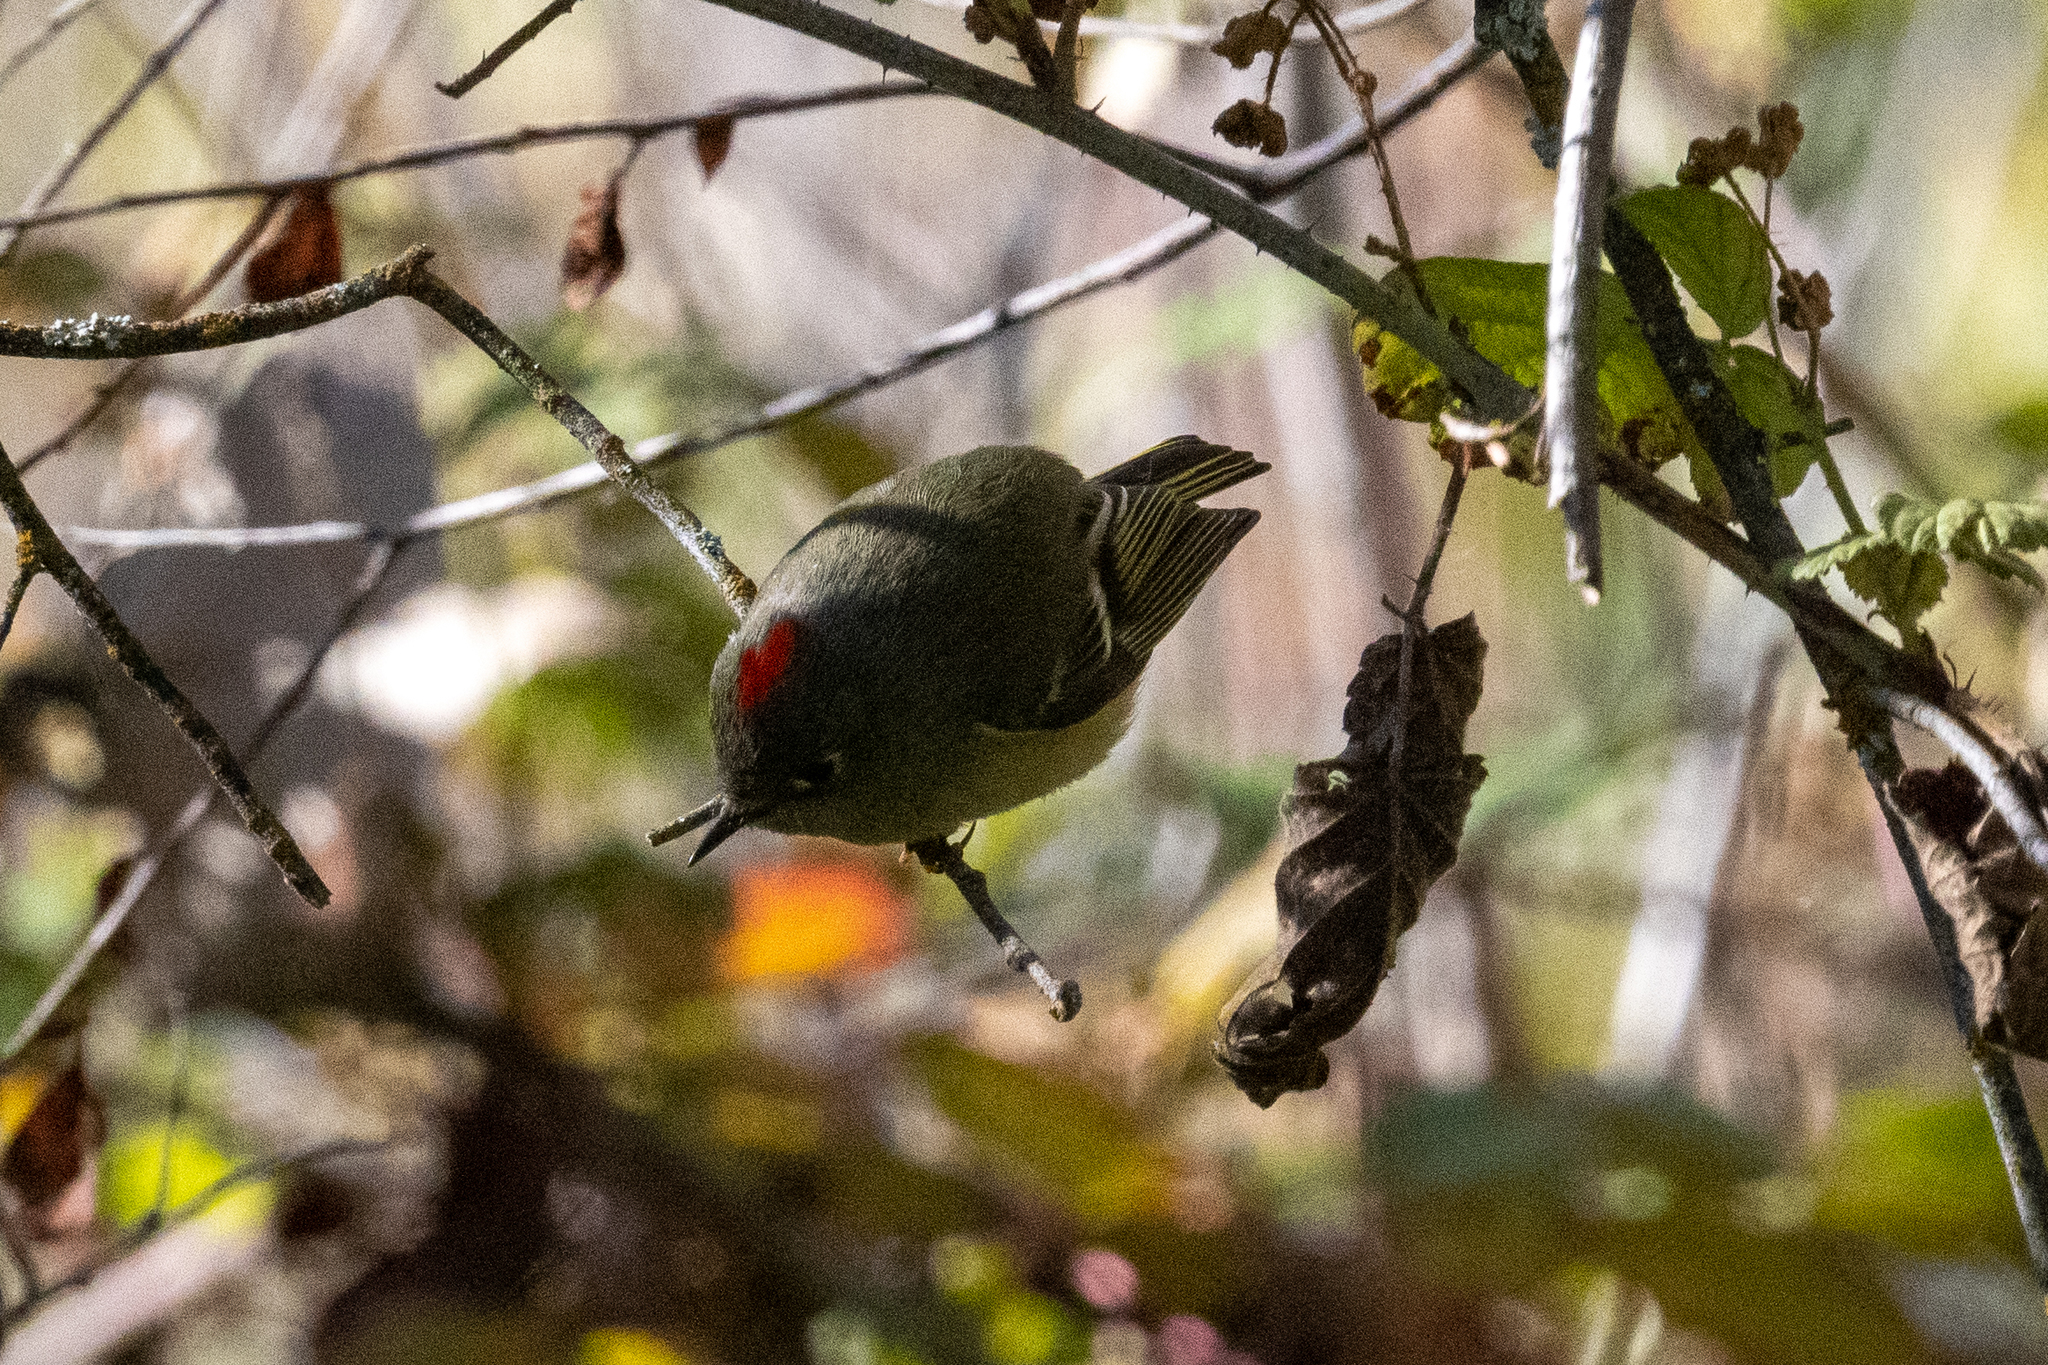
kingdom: Animalia
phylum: Chordata
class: Aves
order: Passeriformes
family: Regulidae
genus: Regulus
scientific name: Regulus calendula
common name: Ruby-crowned kinglet
